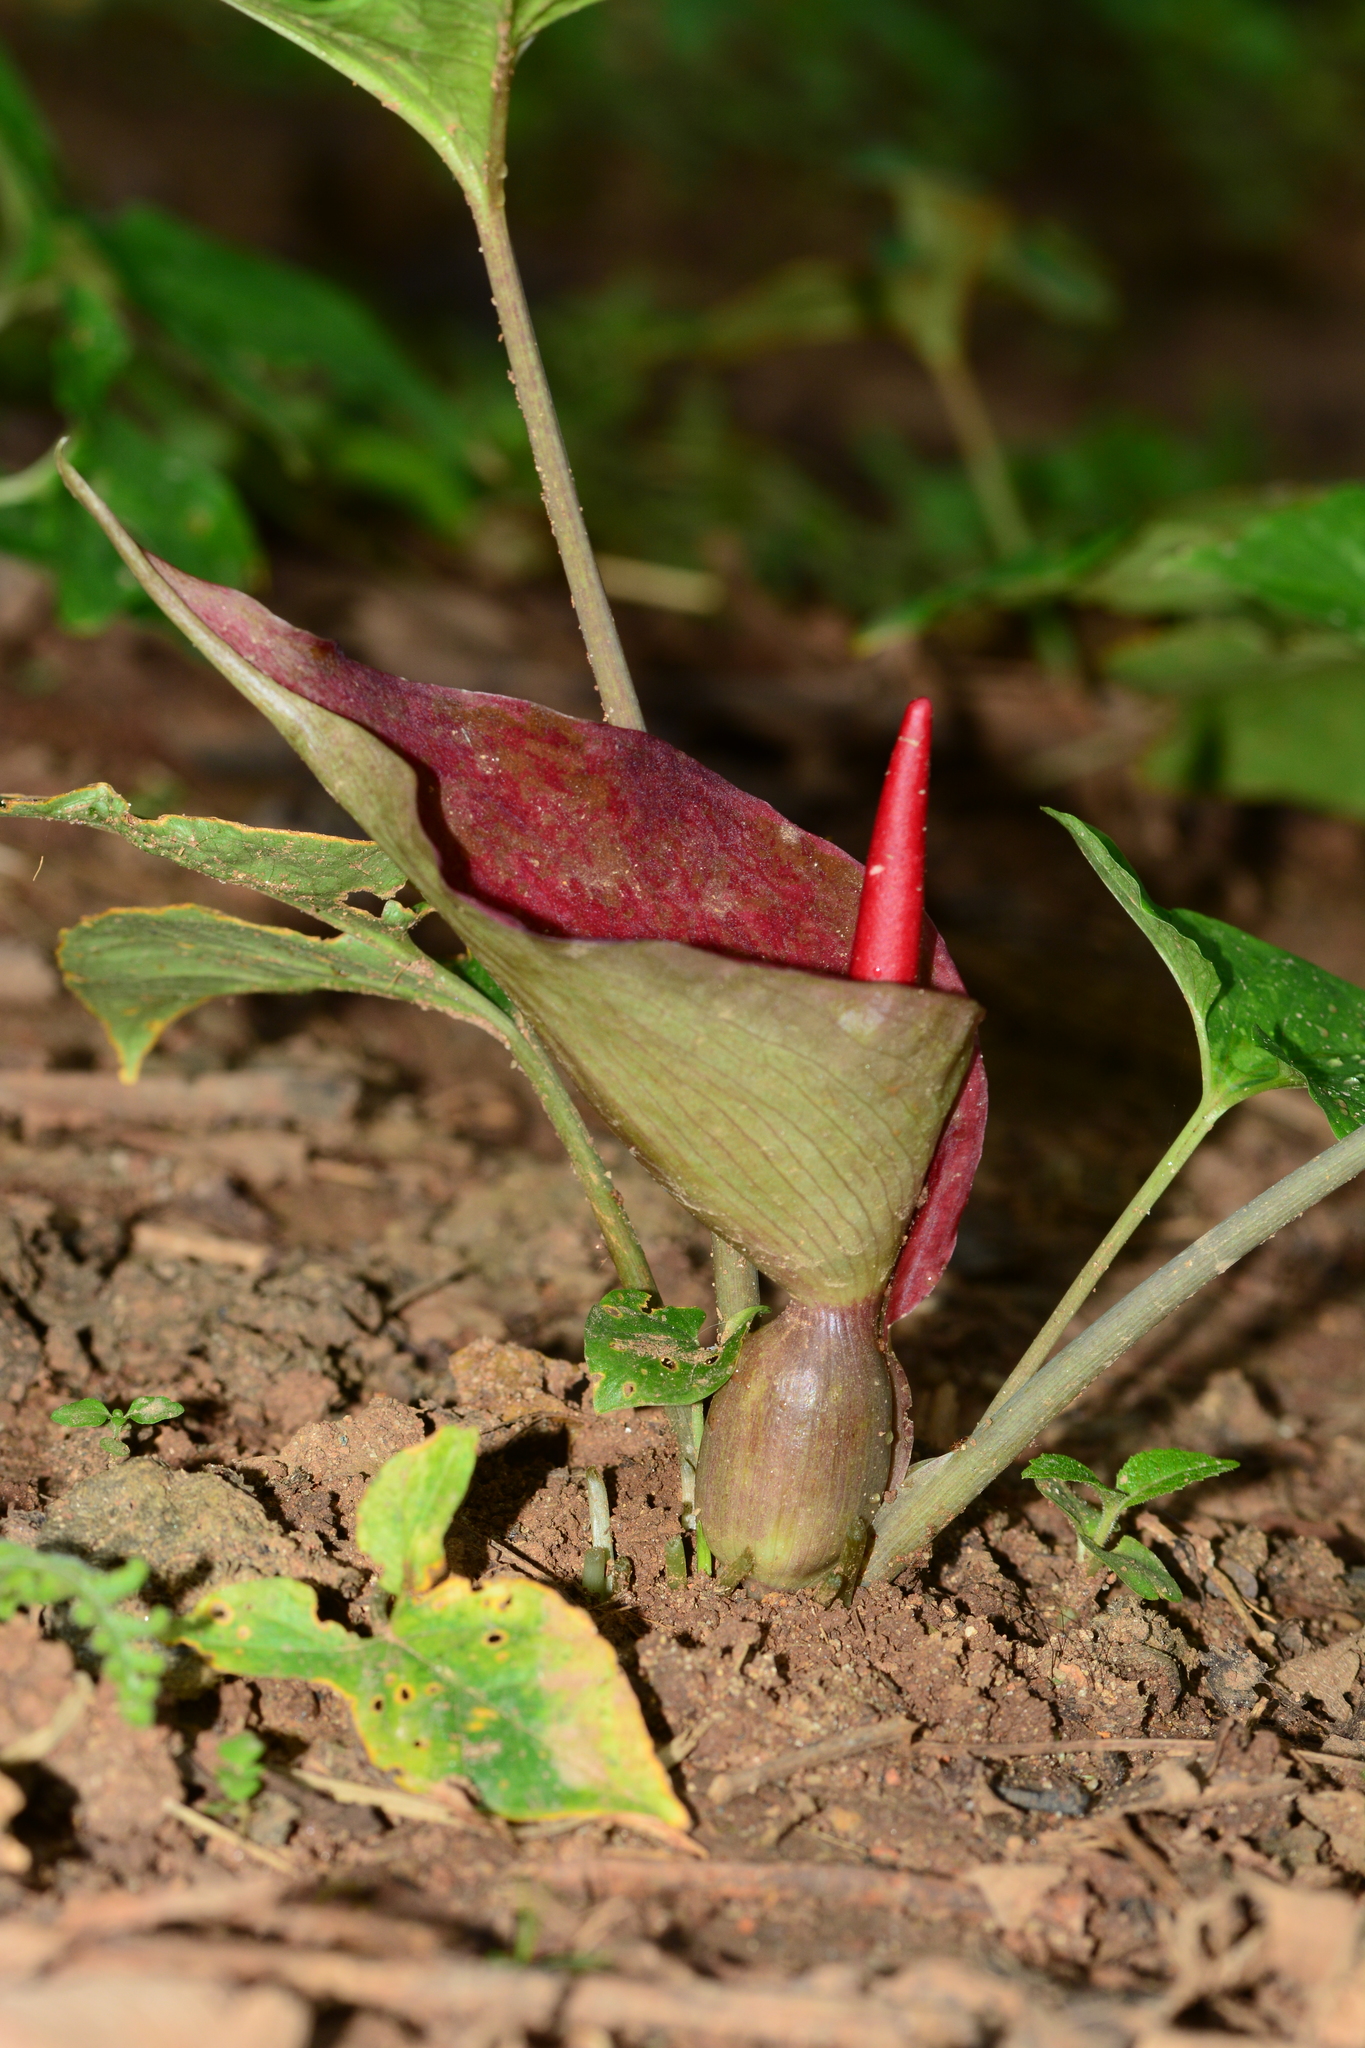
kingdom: Plantae
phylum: Tracheophyta
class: Liliopsida
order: Alismatales
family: Araceae
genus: Typhonium
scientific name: Typhonium trilobatum
